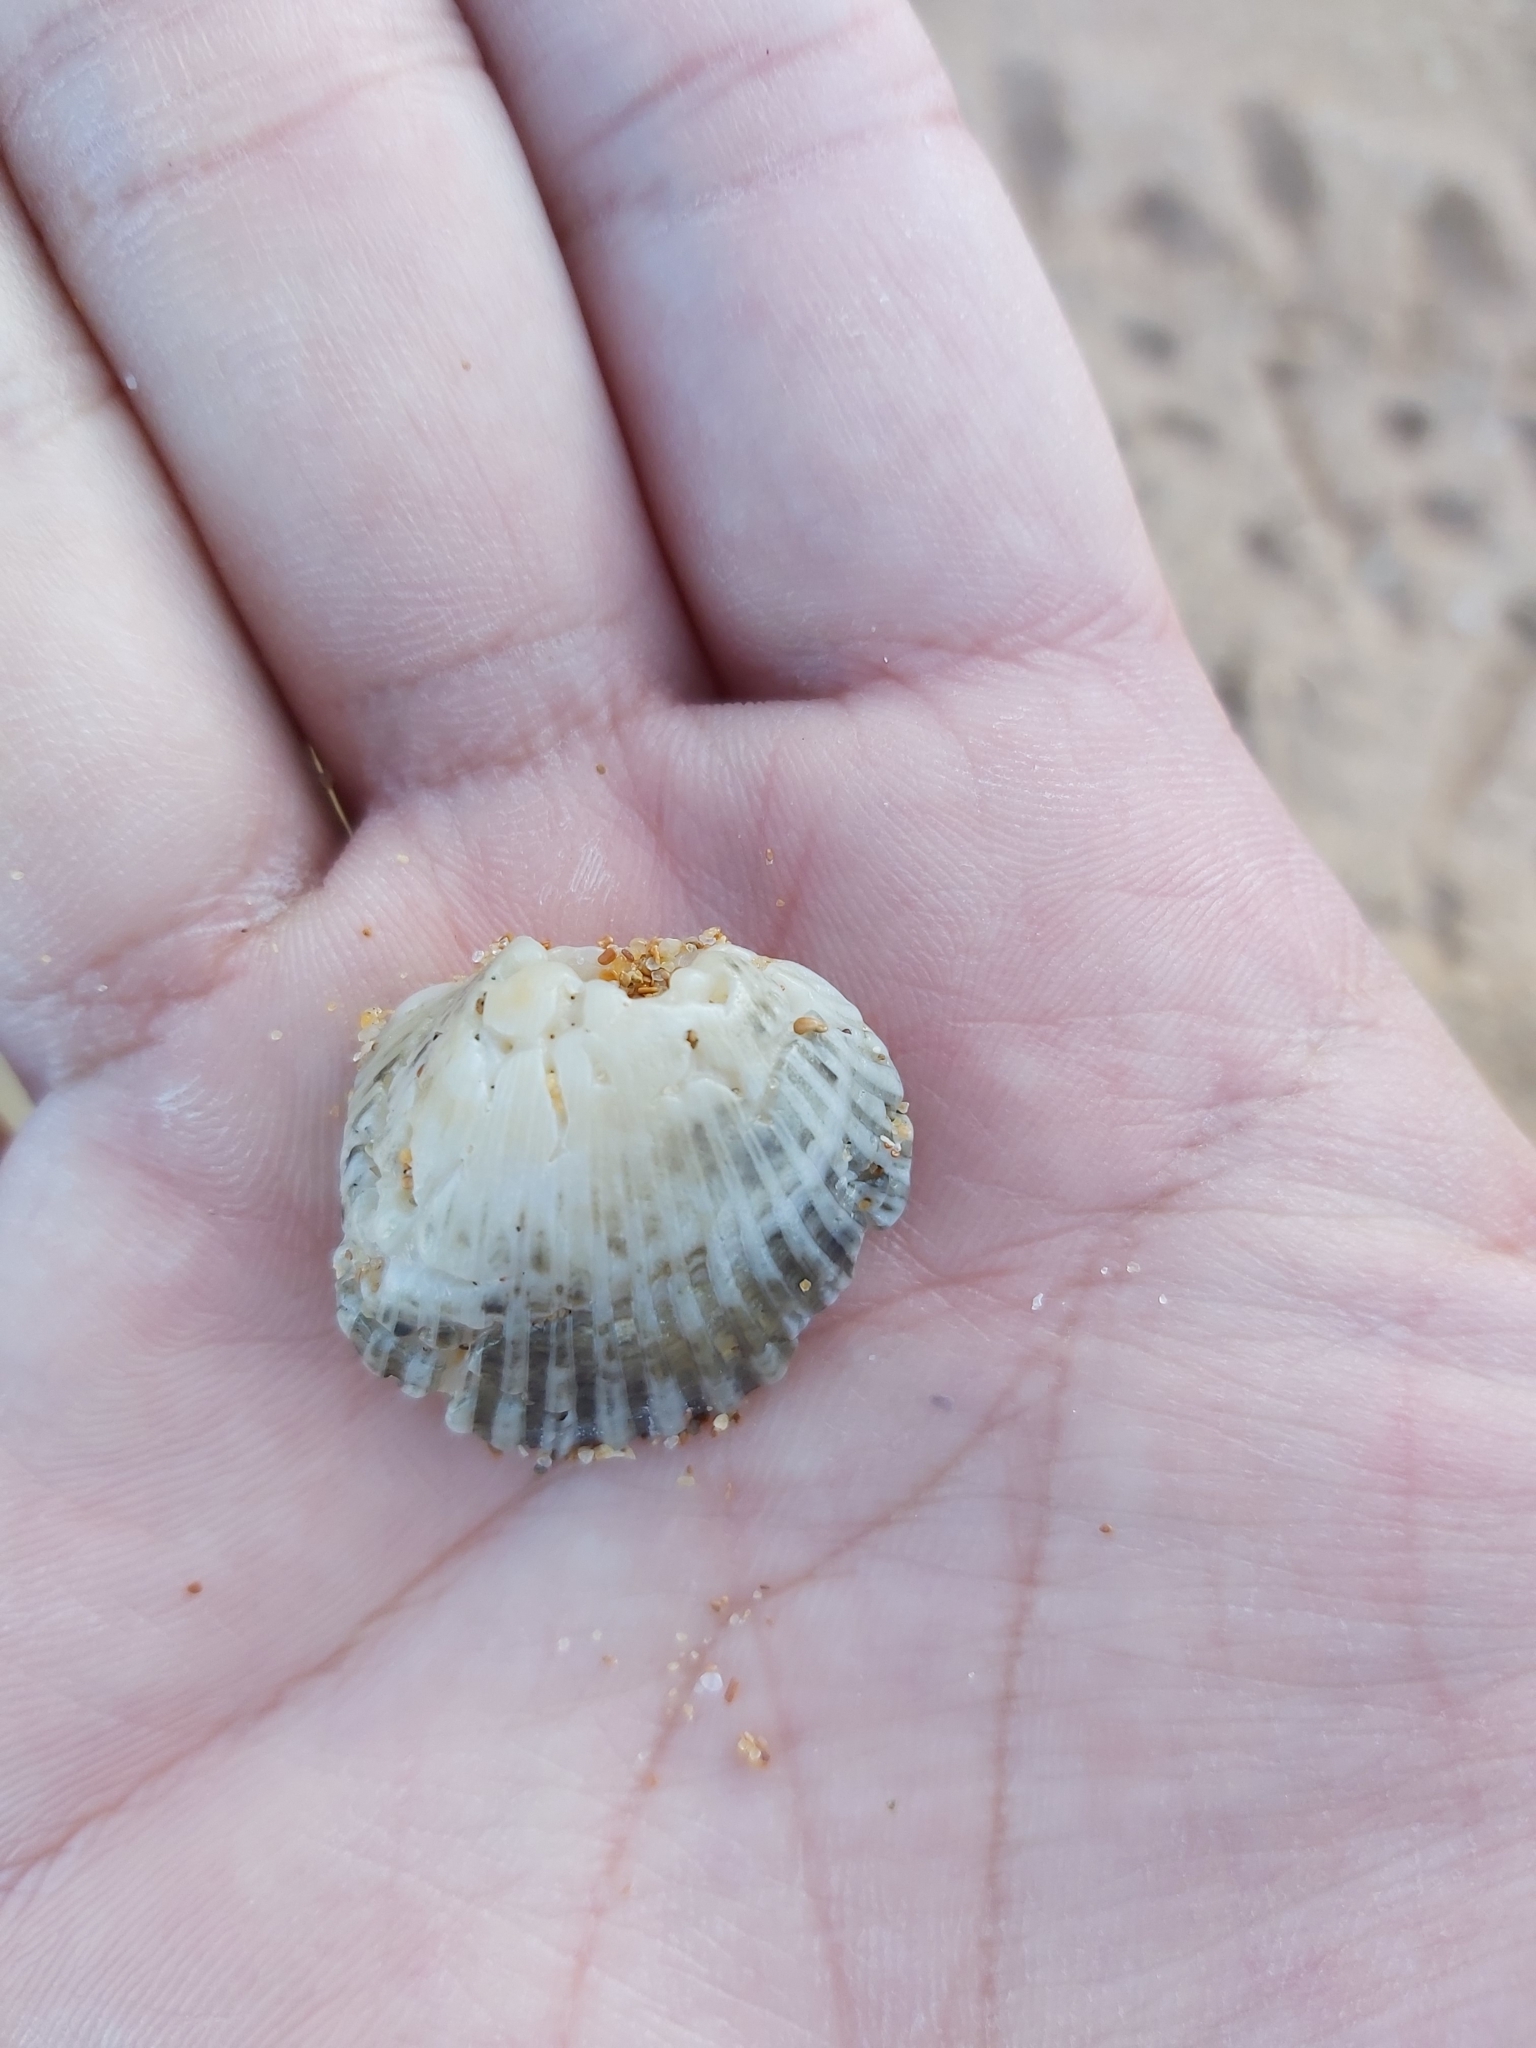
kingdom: Animalia
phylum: Mollusca
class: Bivalvia
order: Arcida
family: Arcidae
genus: Anadara
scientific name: Anadara trapezia
